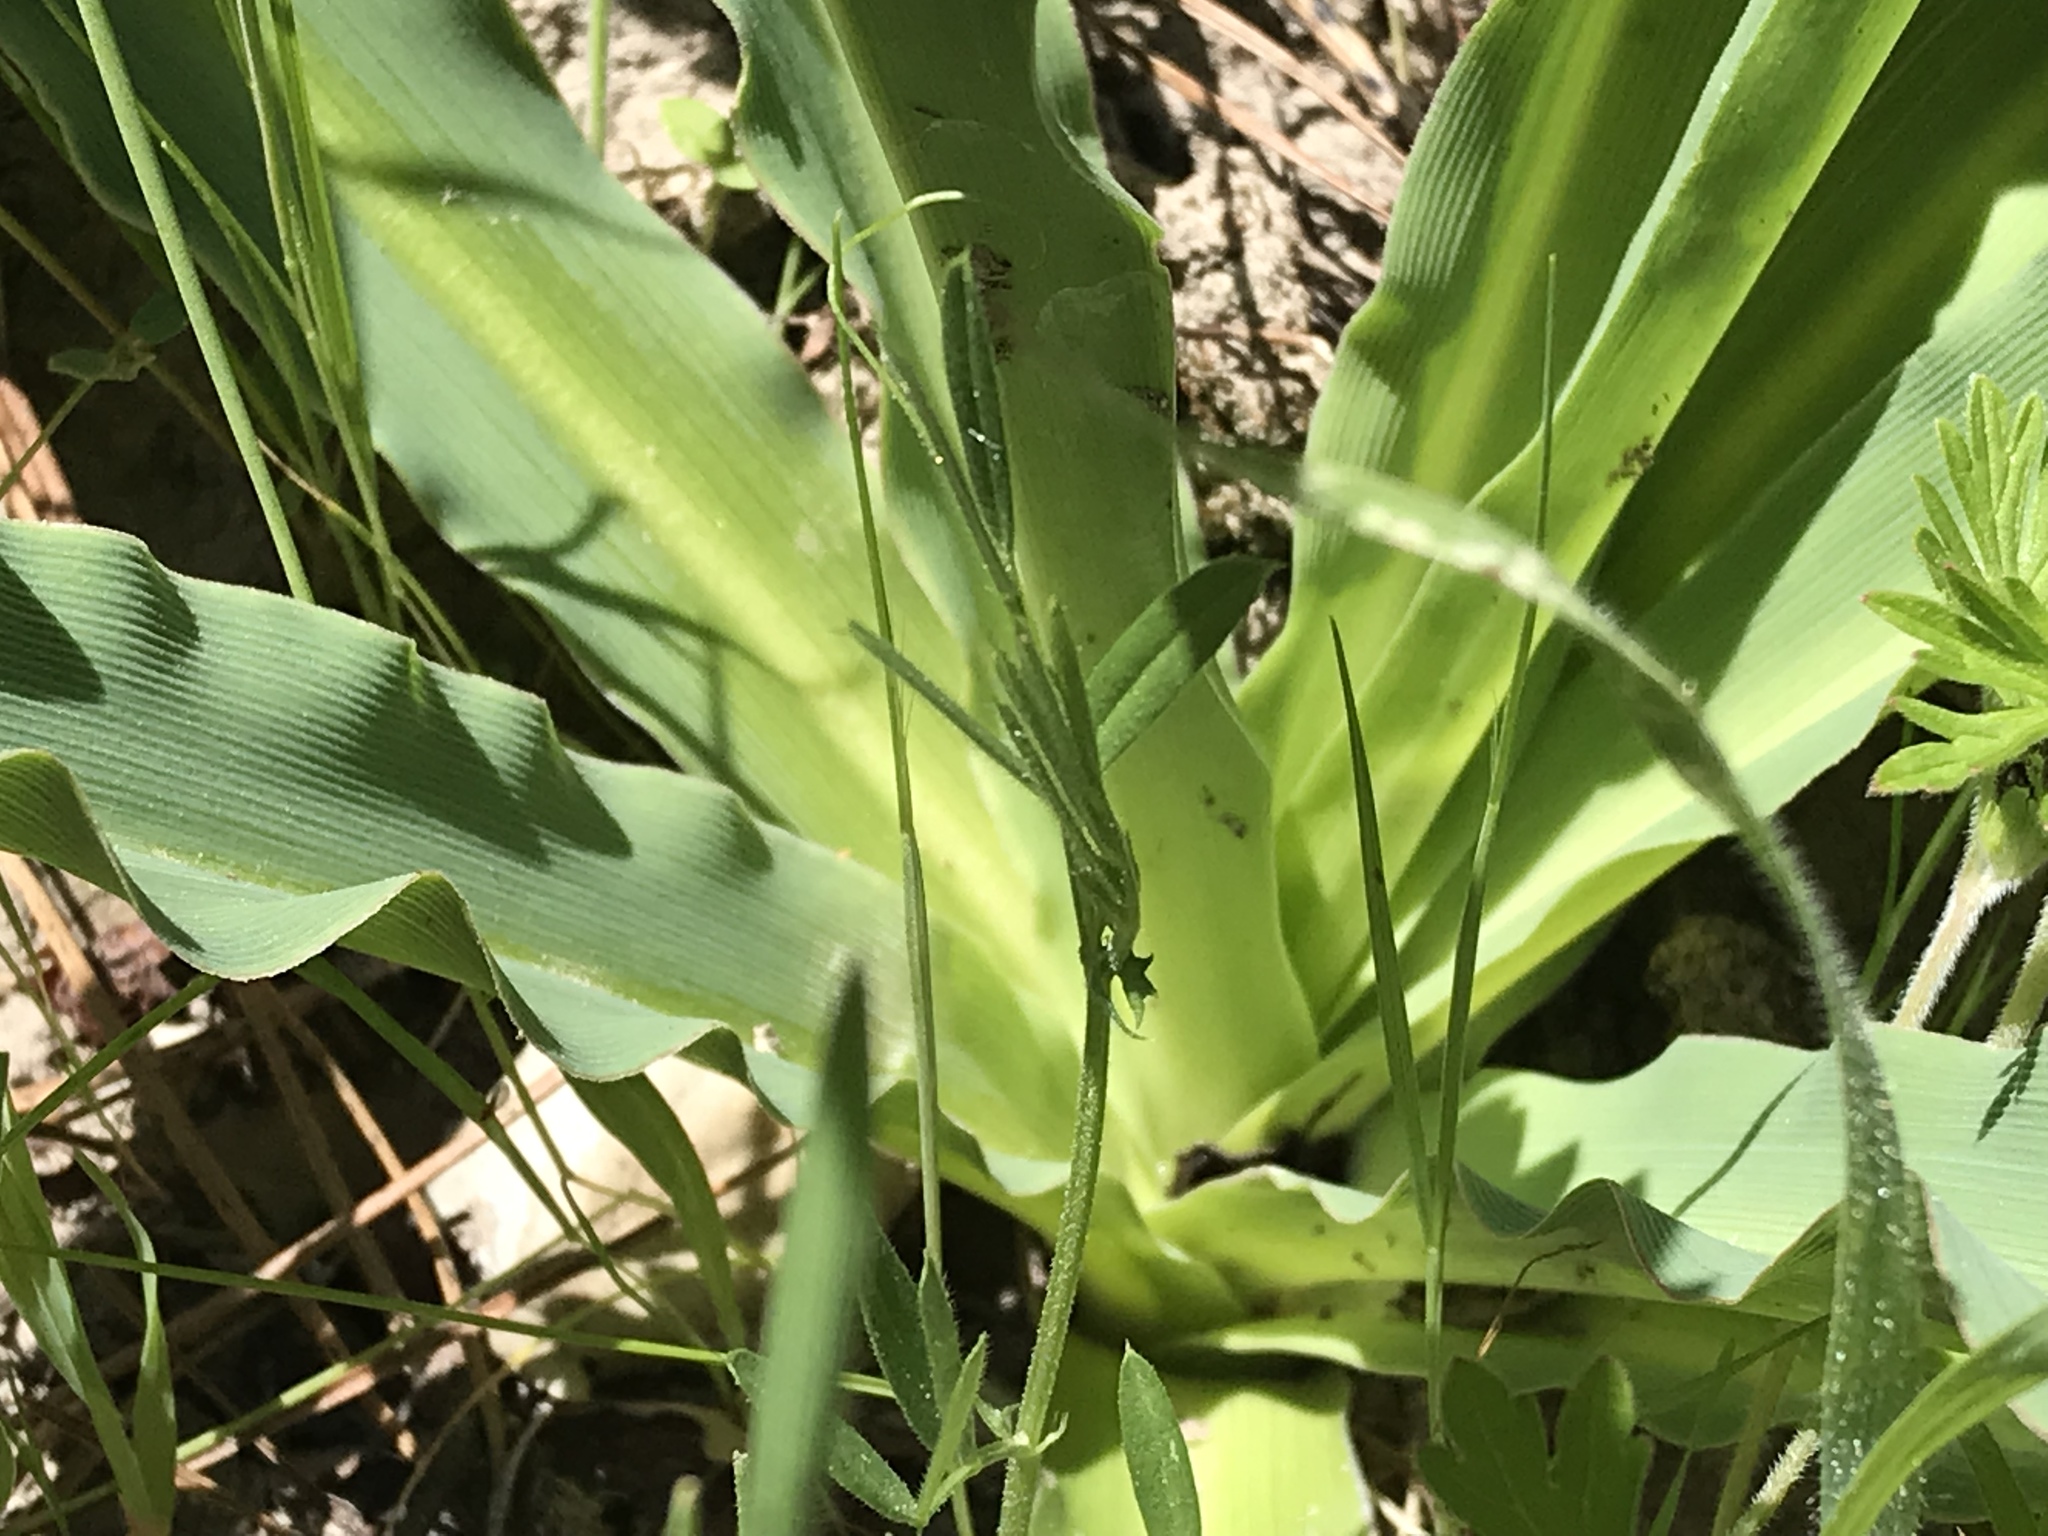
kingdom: Plantae
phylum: Tracheophyta
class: Liliopsida
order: Asparagales
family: Asparagaceae
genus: Chlorogalum
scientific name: Chlorogalum pomeridianum
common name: Amole
